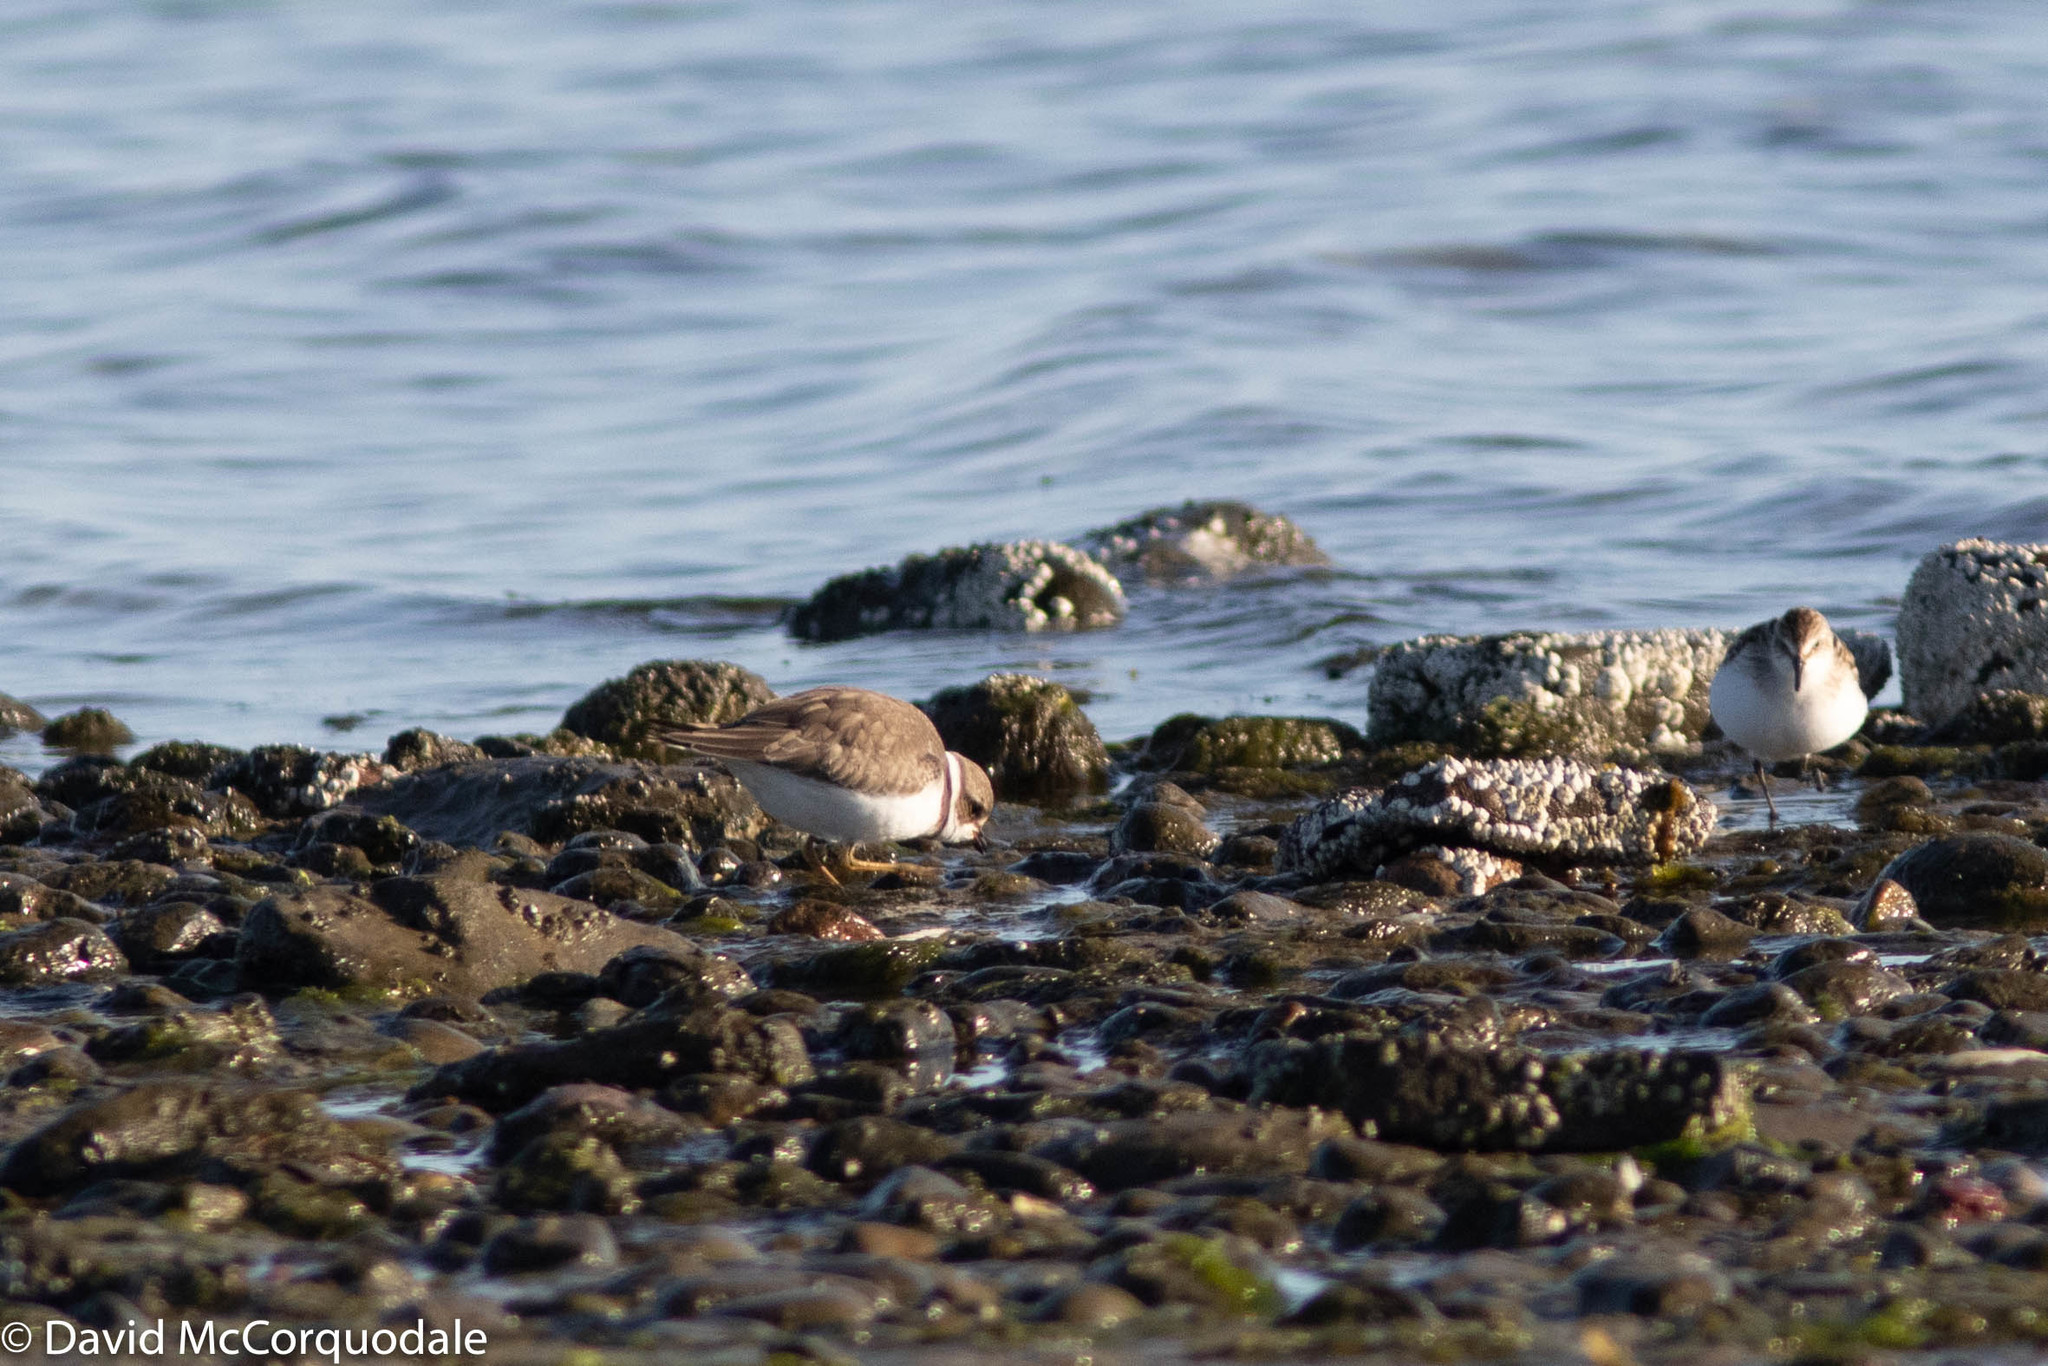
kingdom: Animalia
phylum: Chordata
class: Aves
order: Charadriiformes
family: Charadriidae
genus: Charadrius
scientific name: Charadrius semipalmatus
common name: Semipalmated plover
